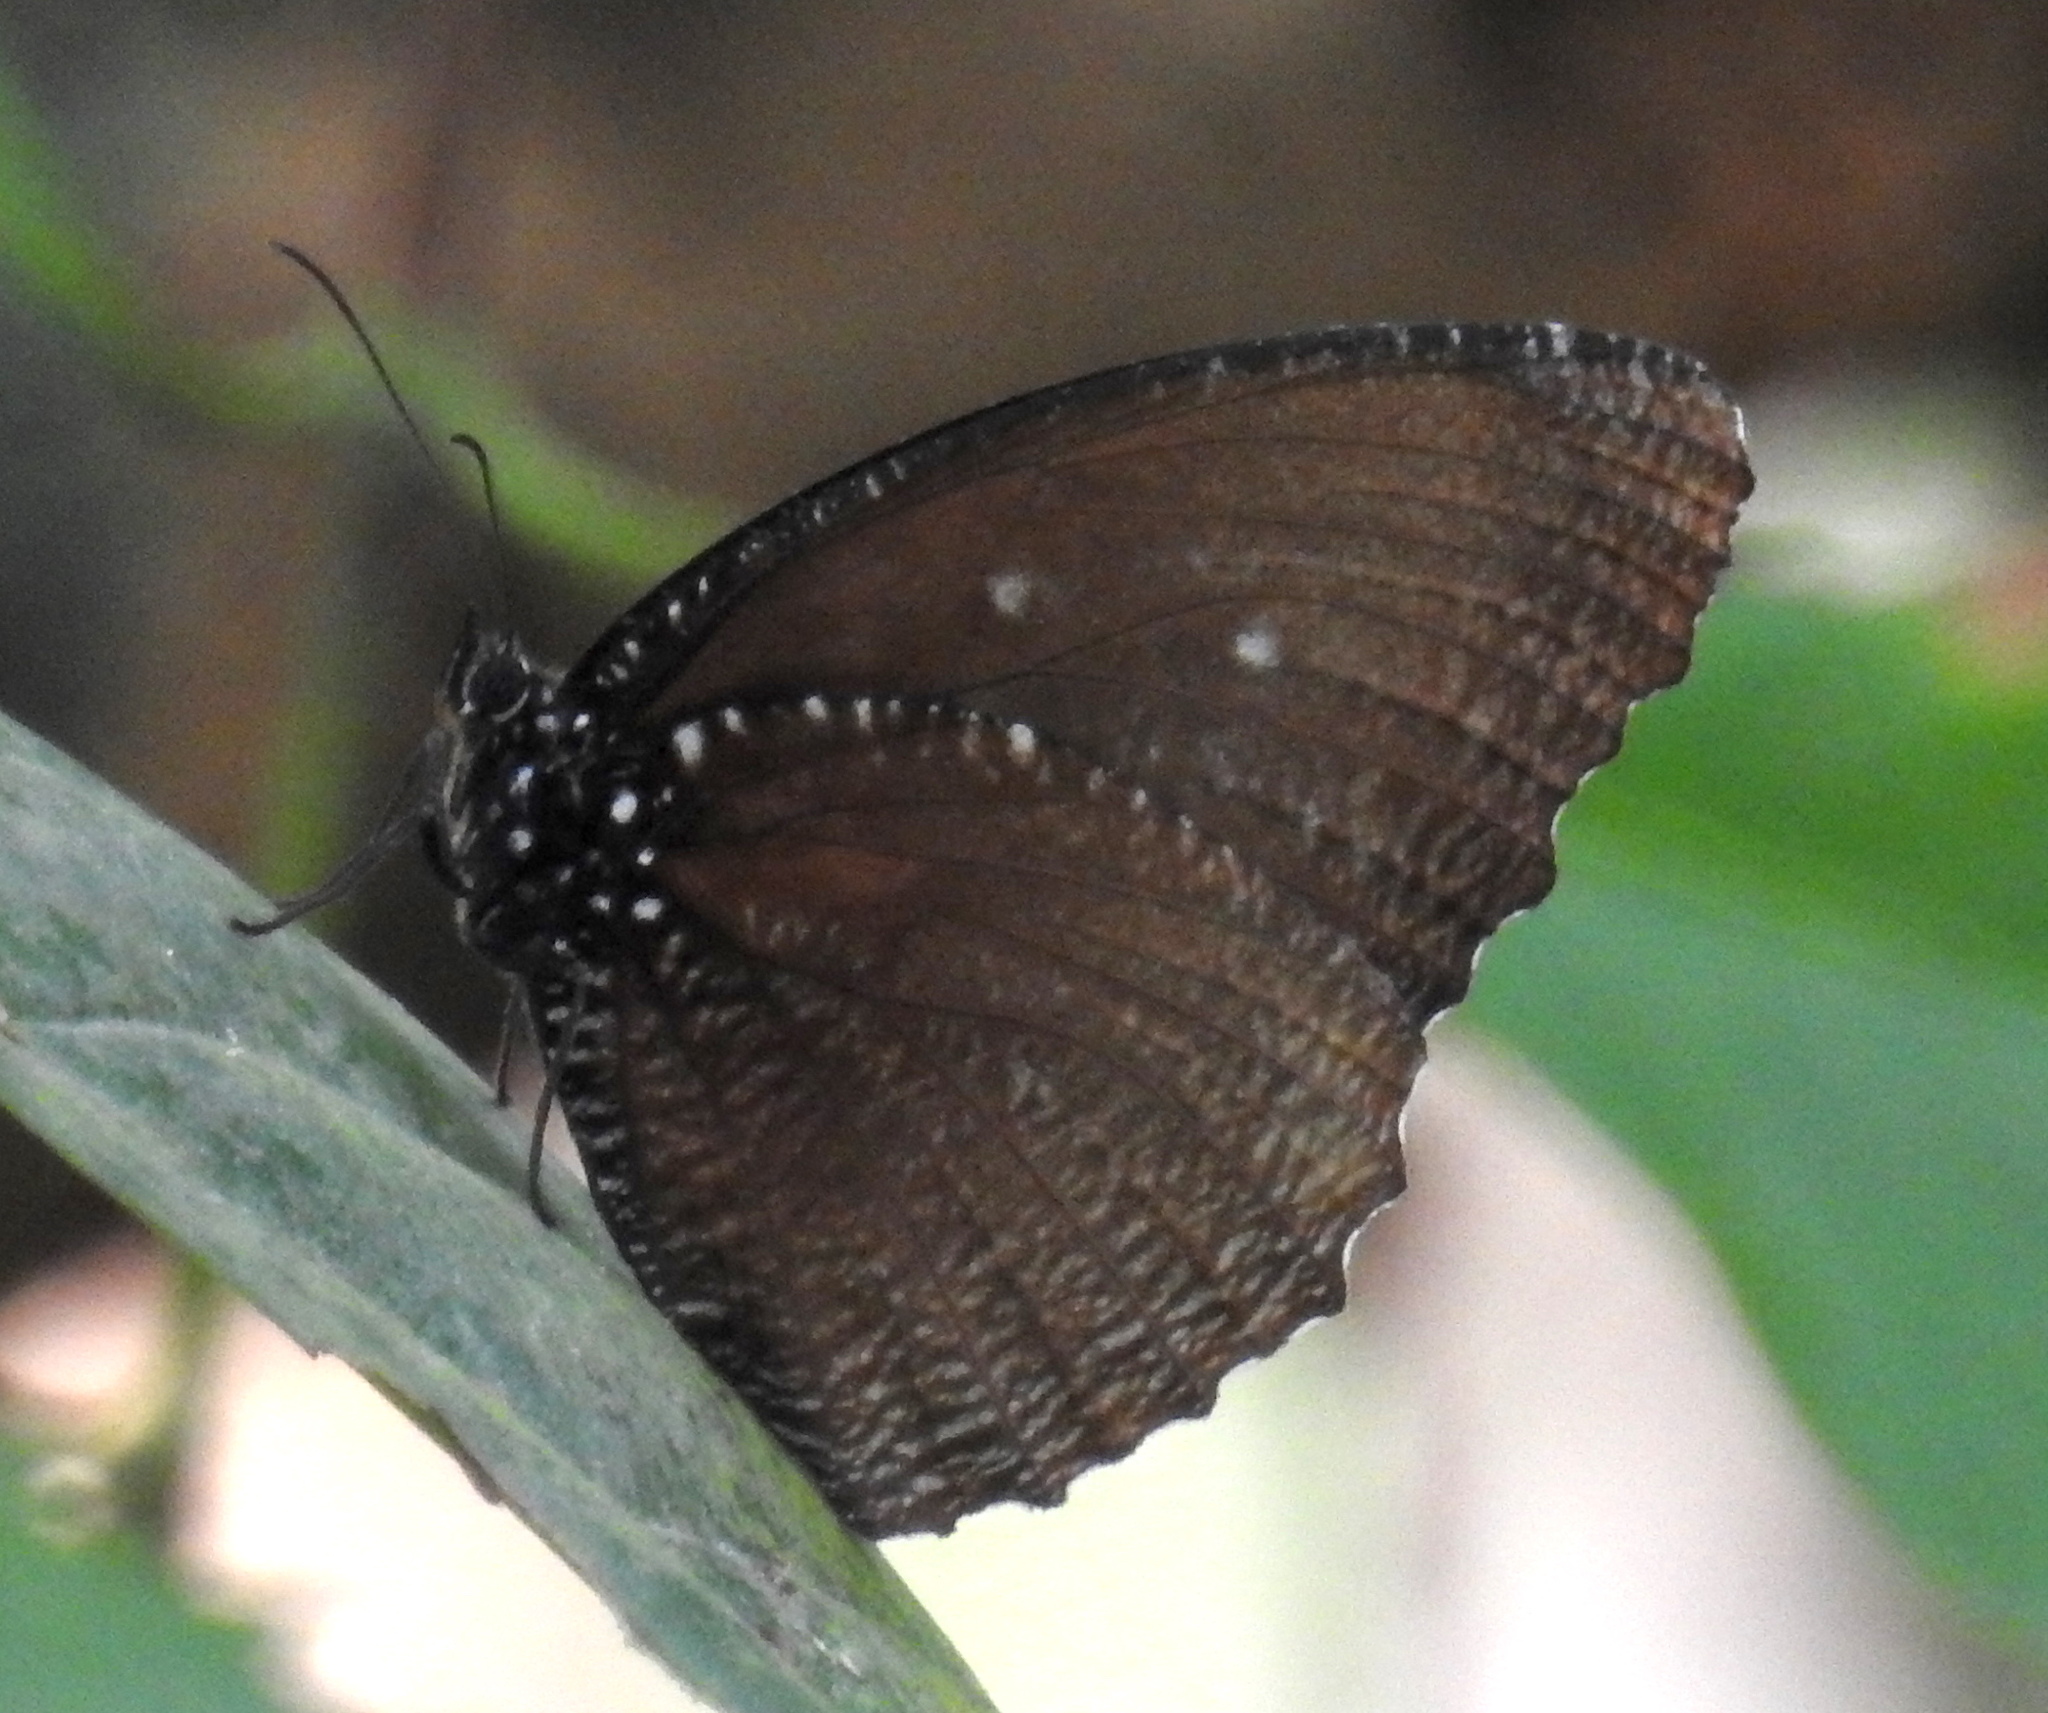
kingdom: Animalia
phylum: Arthropoda
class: Insecta
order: Lepidoptera
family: Nymphalidae
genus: Elymnias
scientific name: Elymnias malelas
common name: Spotted palmfly
